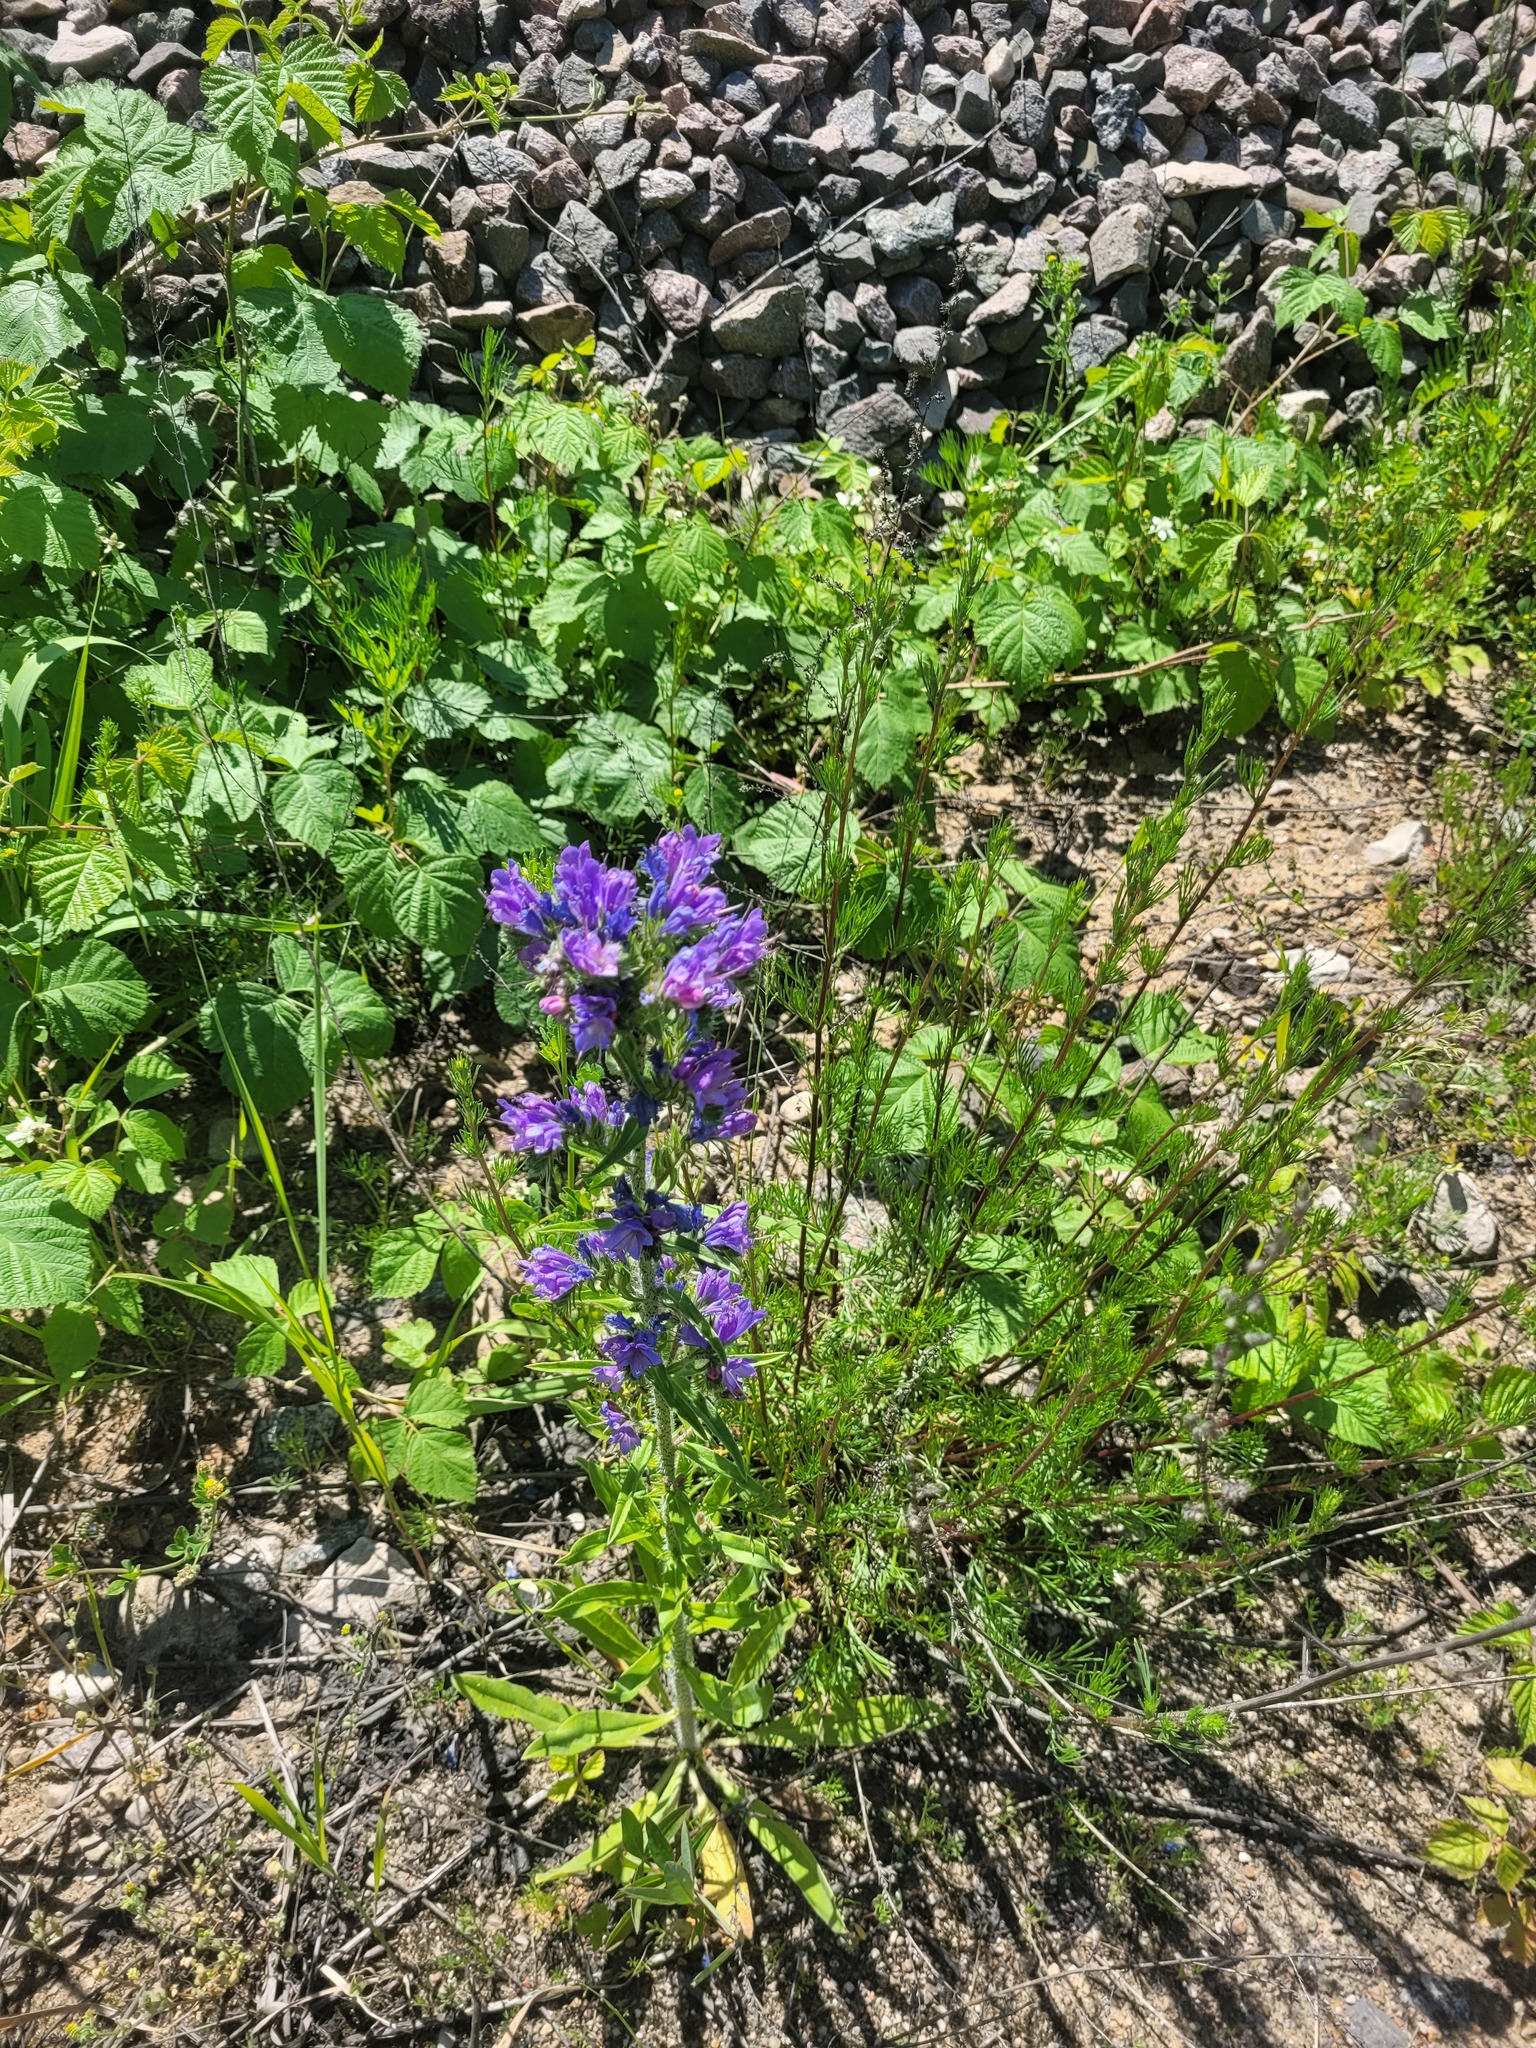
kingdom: Plantae
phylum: Tracheophyta
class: Magnoliopsida
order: Boraginales
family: Boraginaceae
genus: Echium
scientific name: Echium vulgare
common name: Common viper's bugloss
